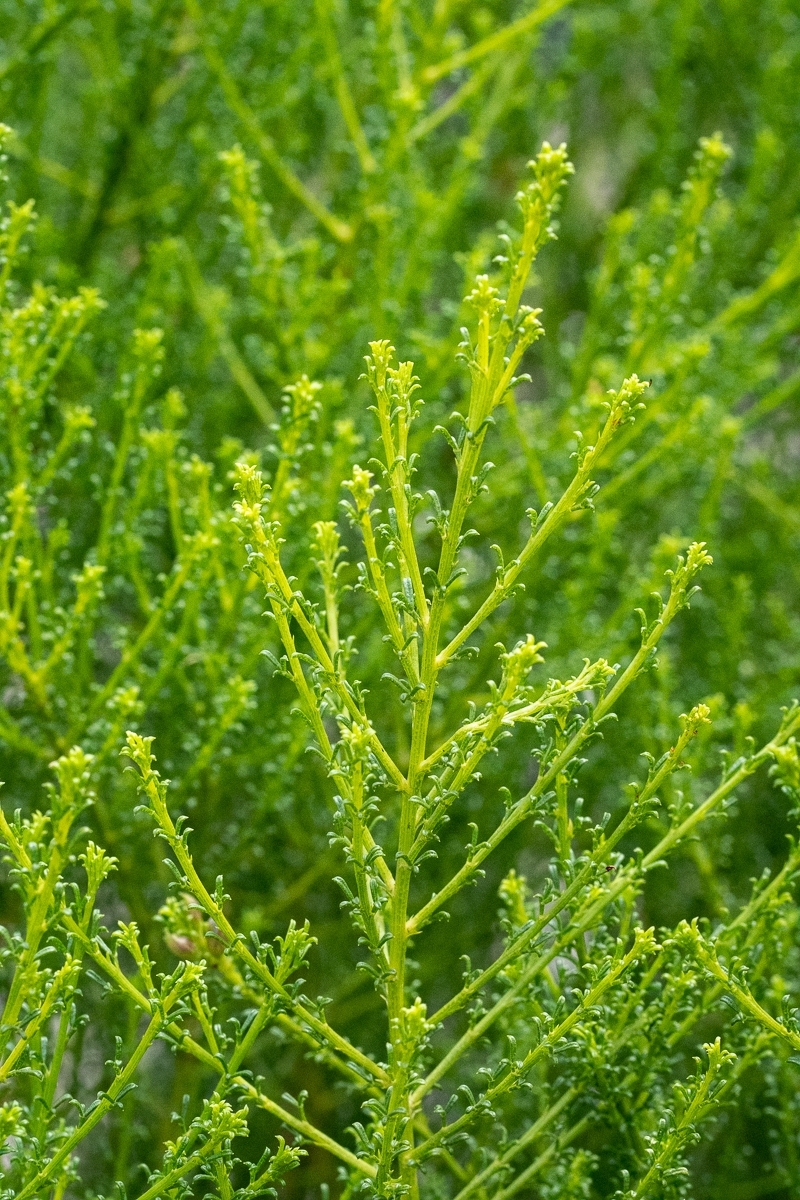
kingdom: Plantae
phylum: Tracheophyta
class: Magnoliopsida
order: Fabales
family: Fabaceae
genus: Psoralea
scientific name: Psoralea aculeata
